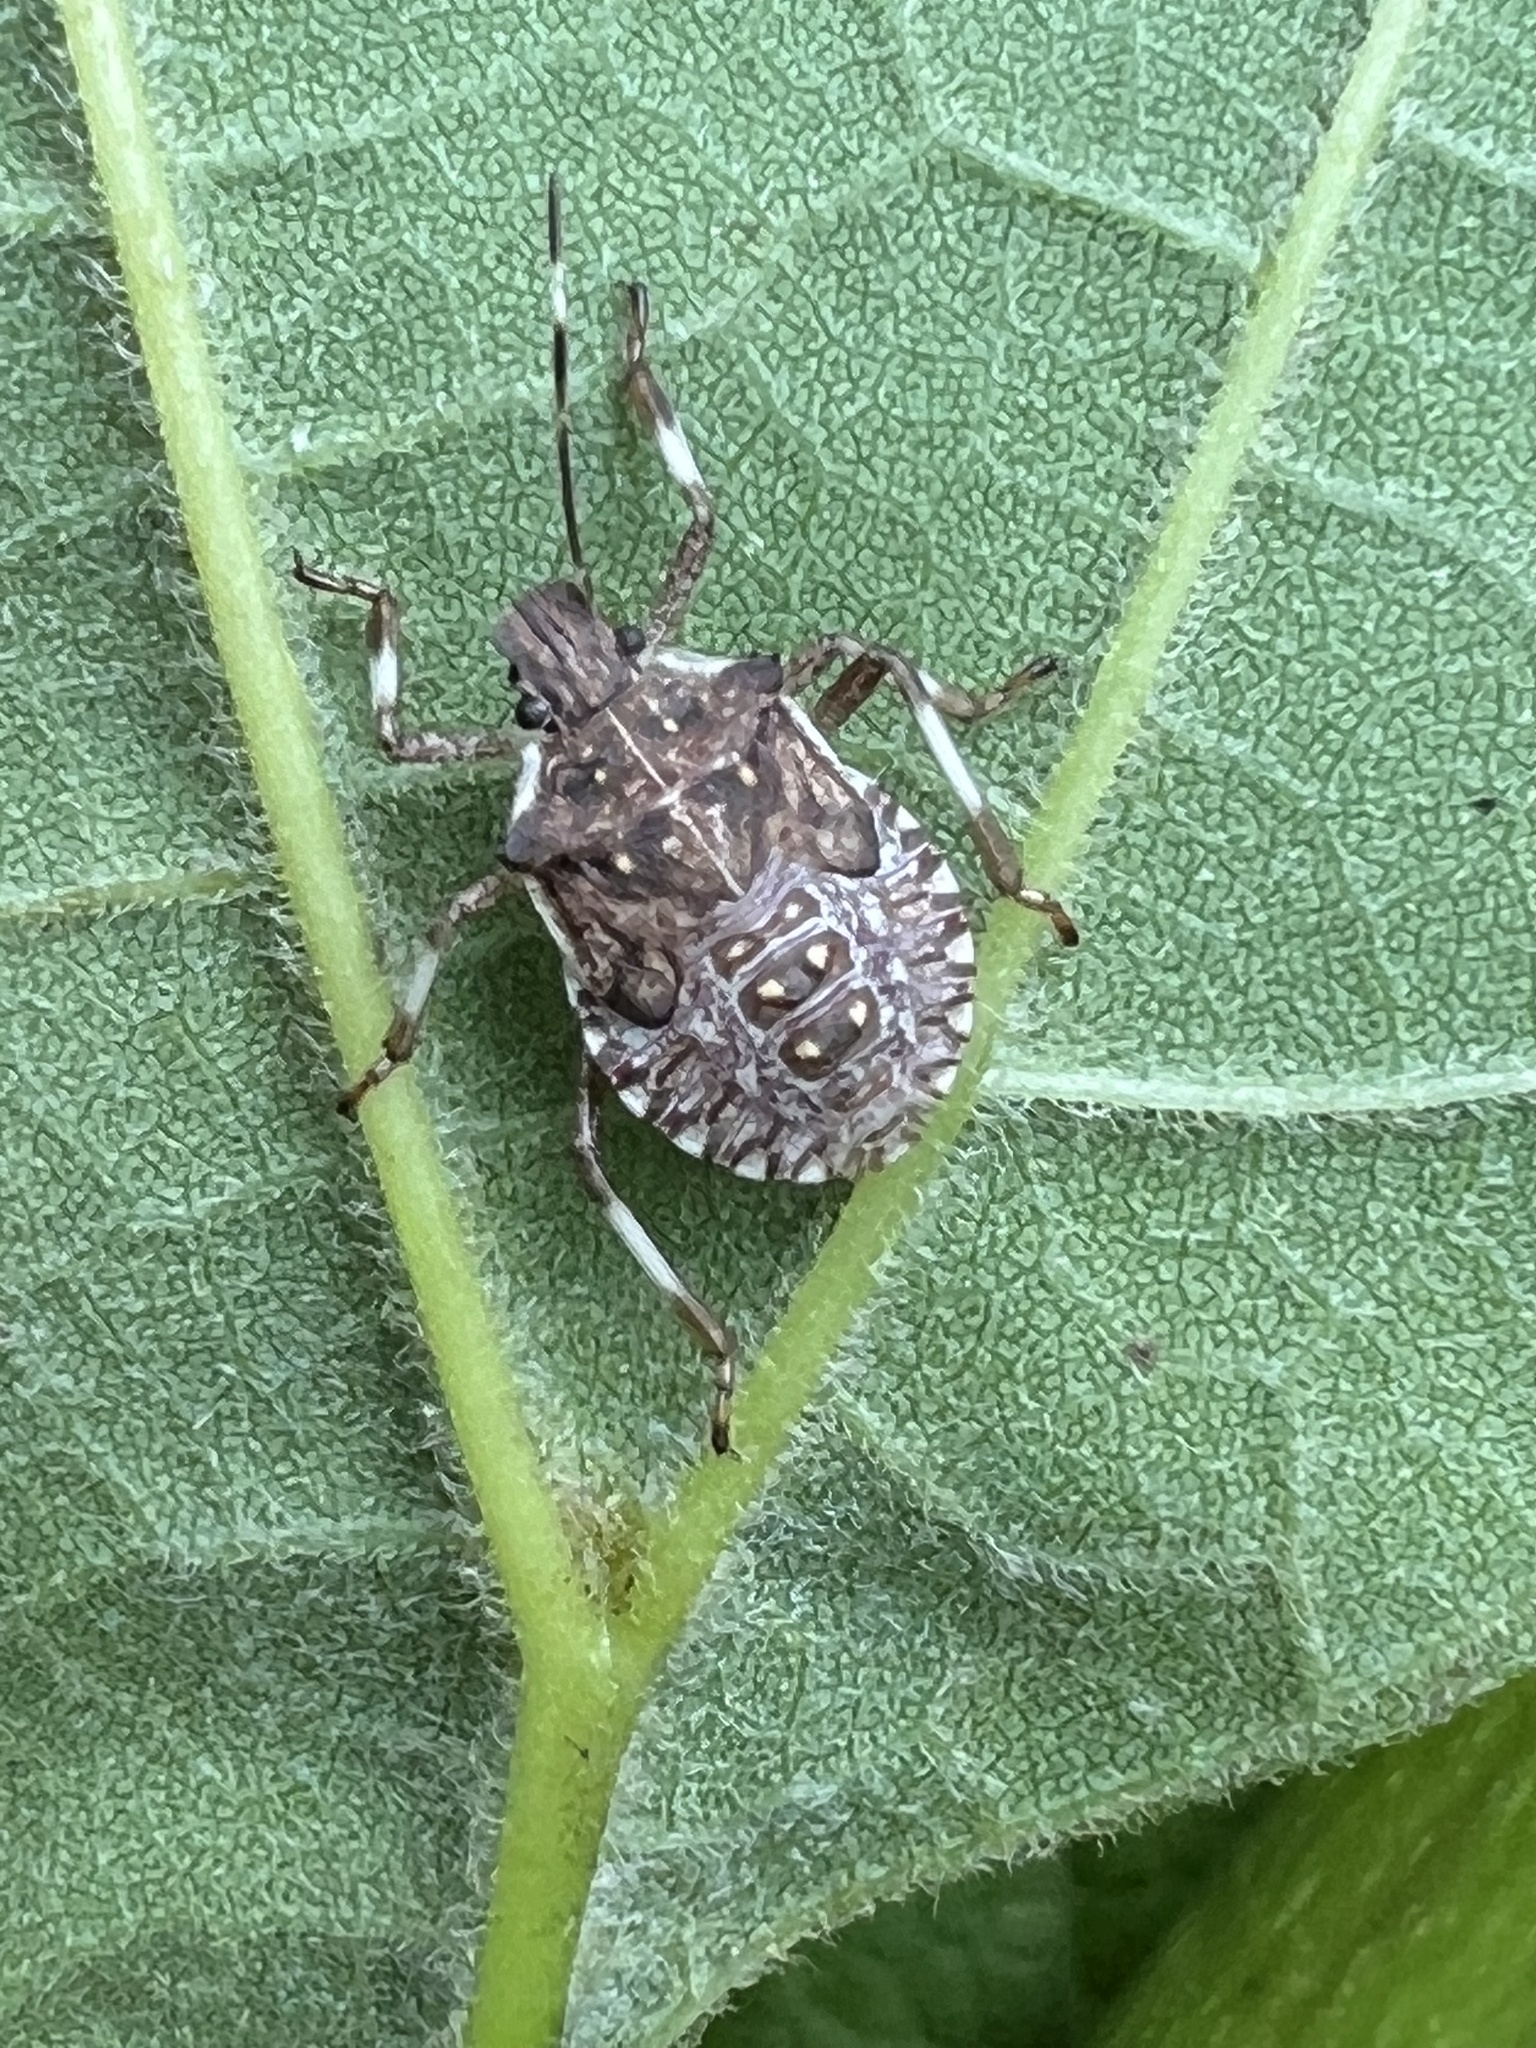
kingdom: Animalia
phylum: Arthropoda
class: Insecta
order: Hemiptera
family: Pentatomidae
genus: Halyomorpha
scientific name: Halyomorpha halys
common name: Brown marmorated stink bug
